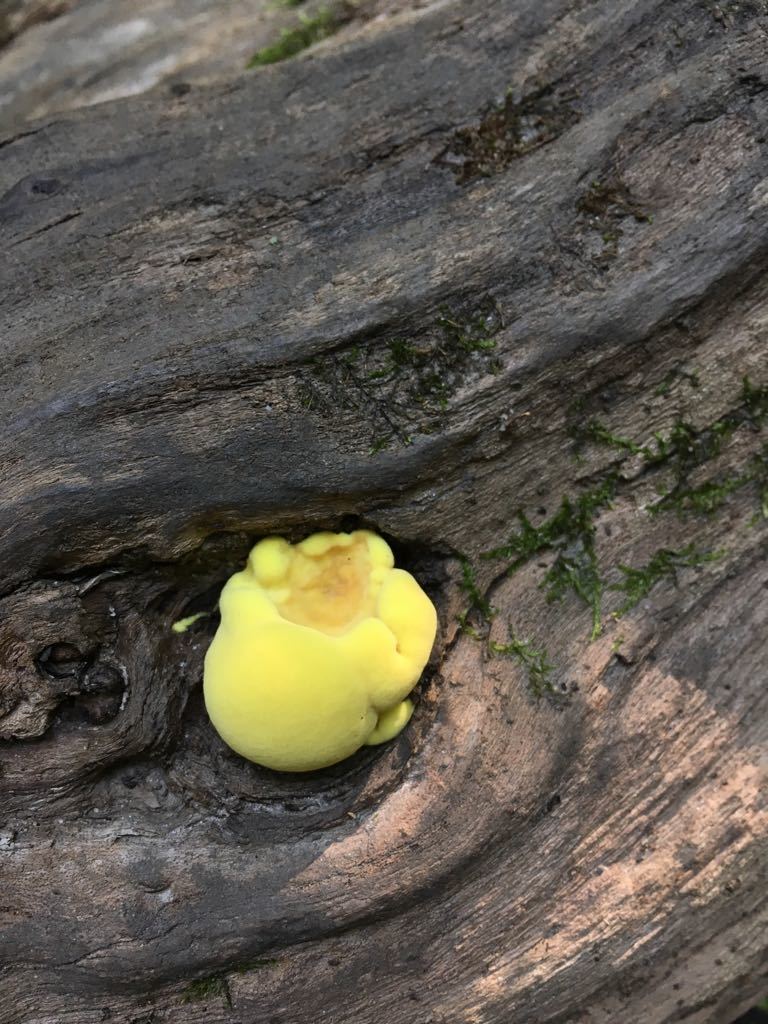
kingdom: Fungi
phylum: Basidiomycota
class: Agaricomycetes
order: Polyporales
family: Laetiporaceae
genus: Laetiporus
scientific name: Laetiporus sulphureus
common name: Chicken of the woods
